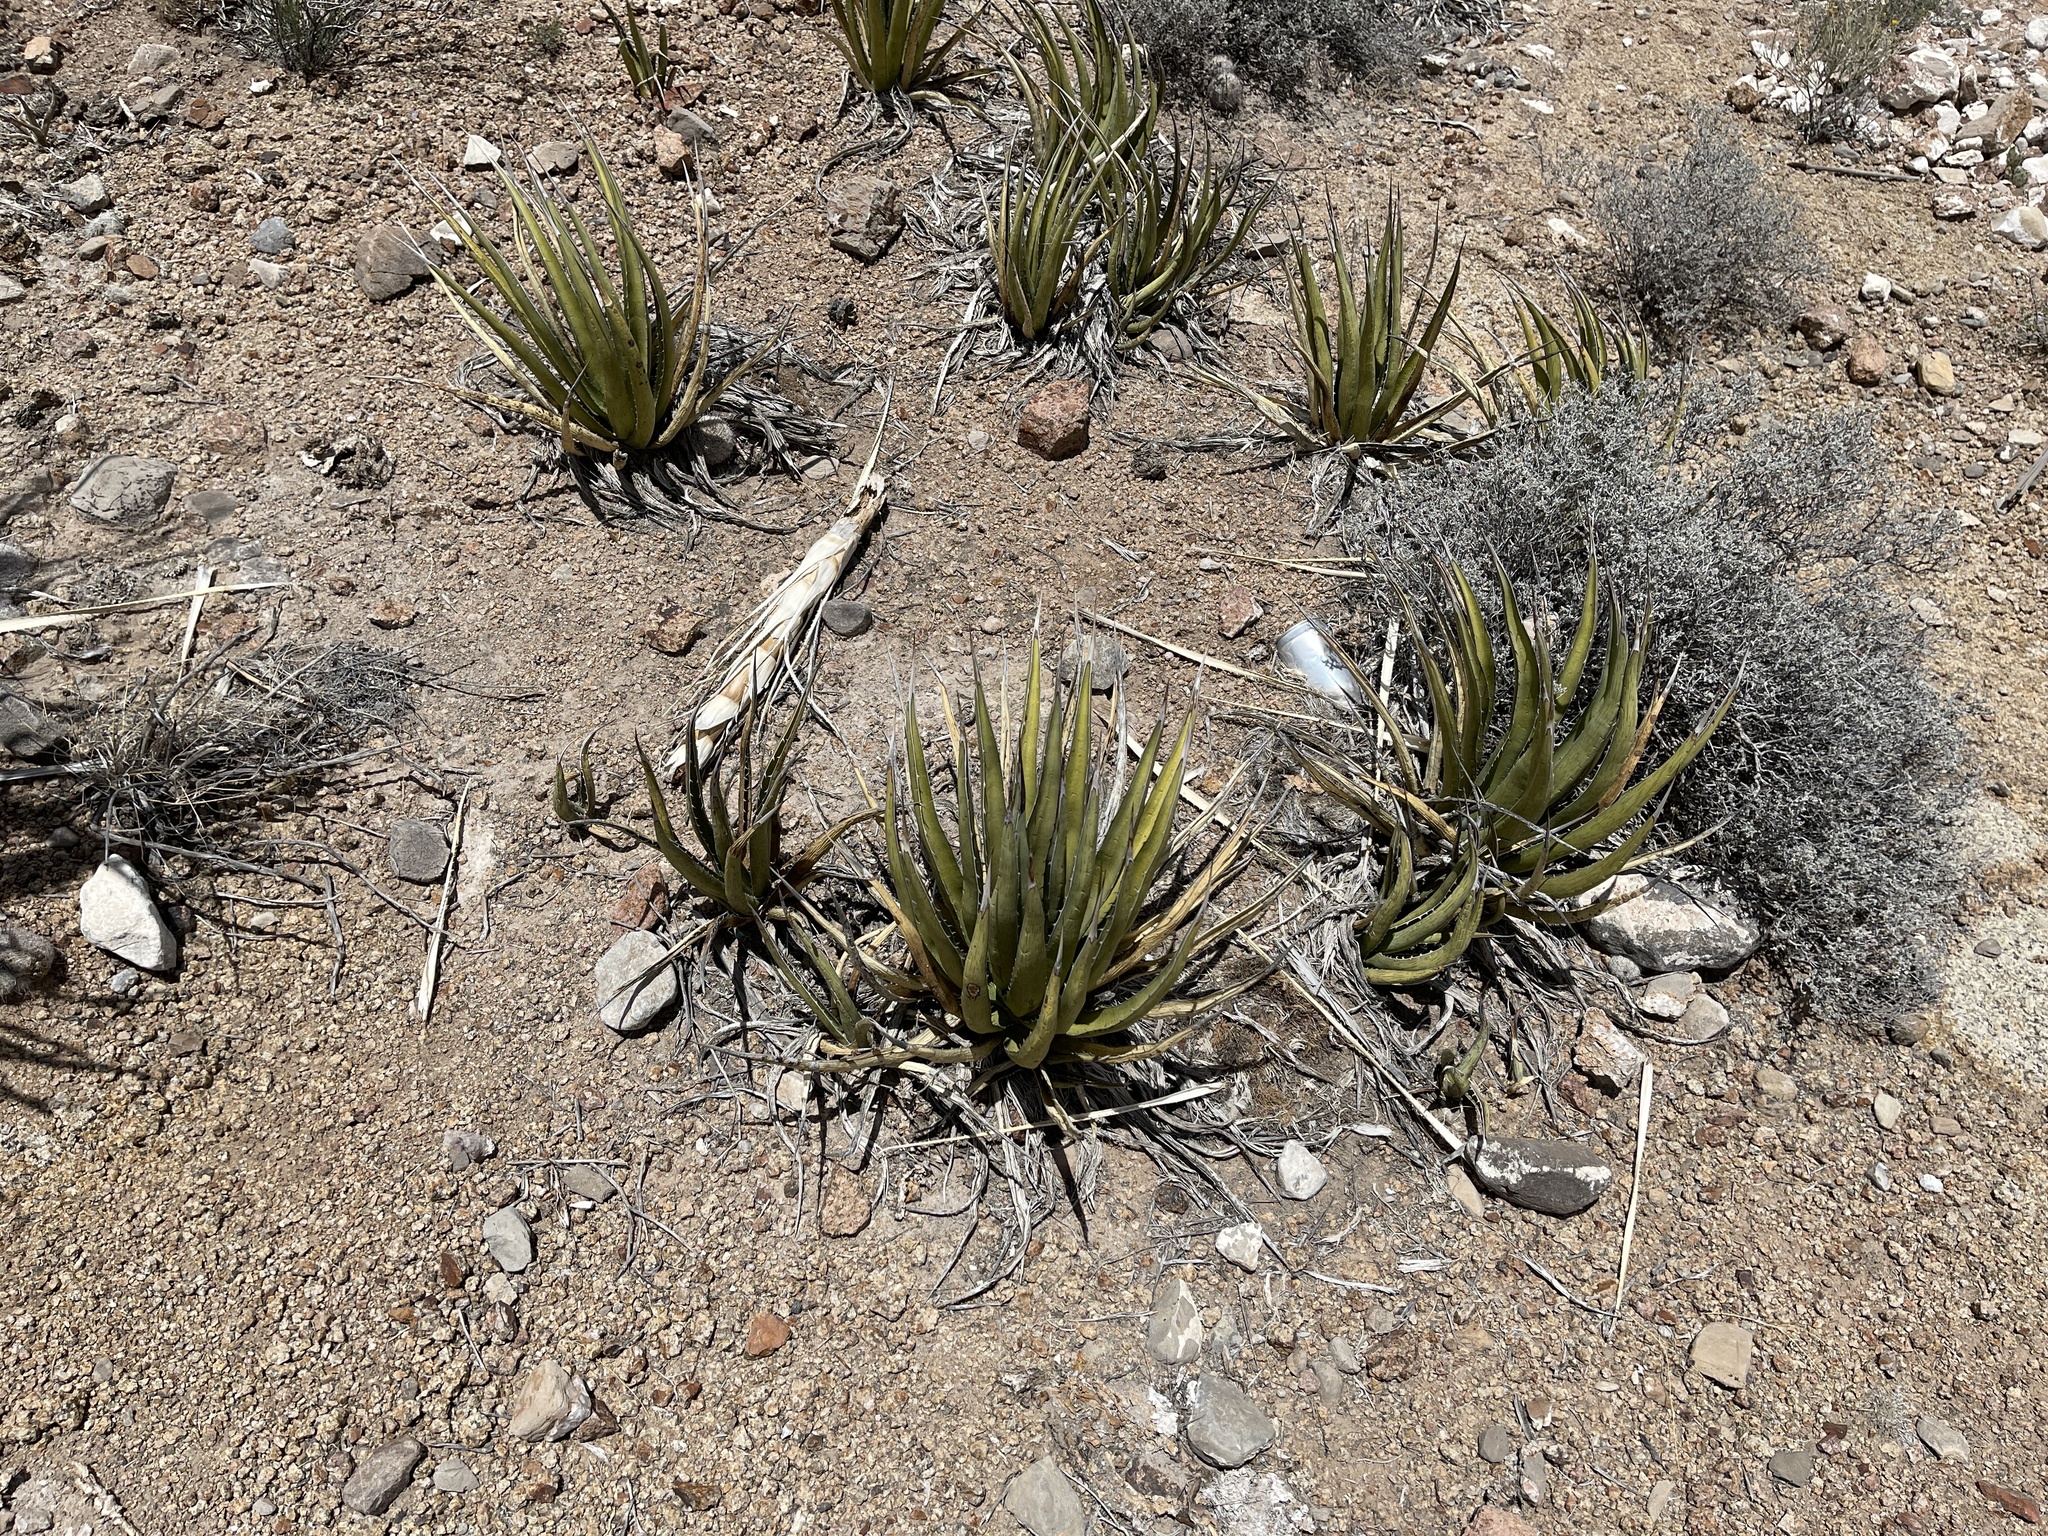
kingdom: Plantae
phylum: Tracheophyta
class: Liliopsida
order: Asparagales
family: Asparagaceae
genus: Agave
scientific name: Agave lechuguilla
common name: Lecheguilla agave
